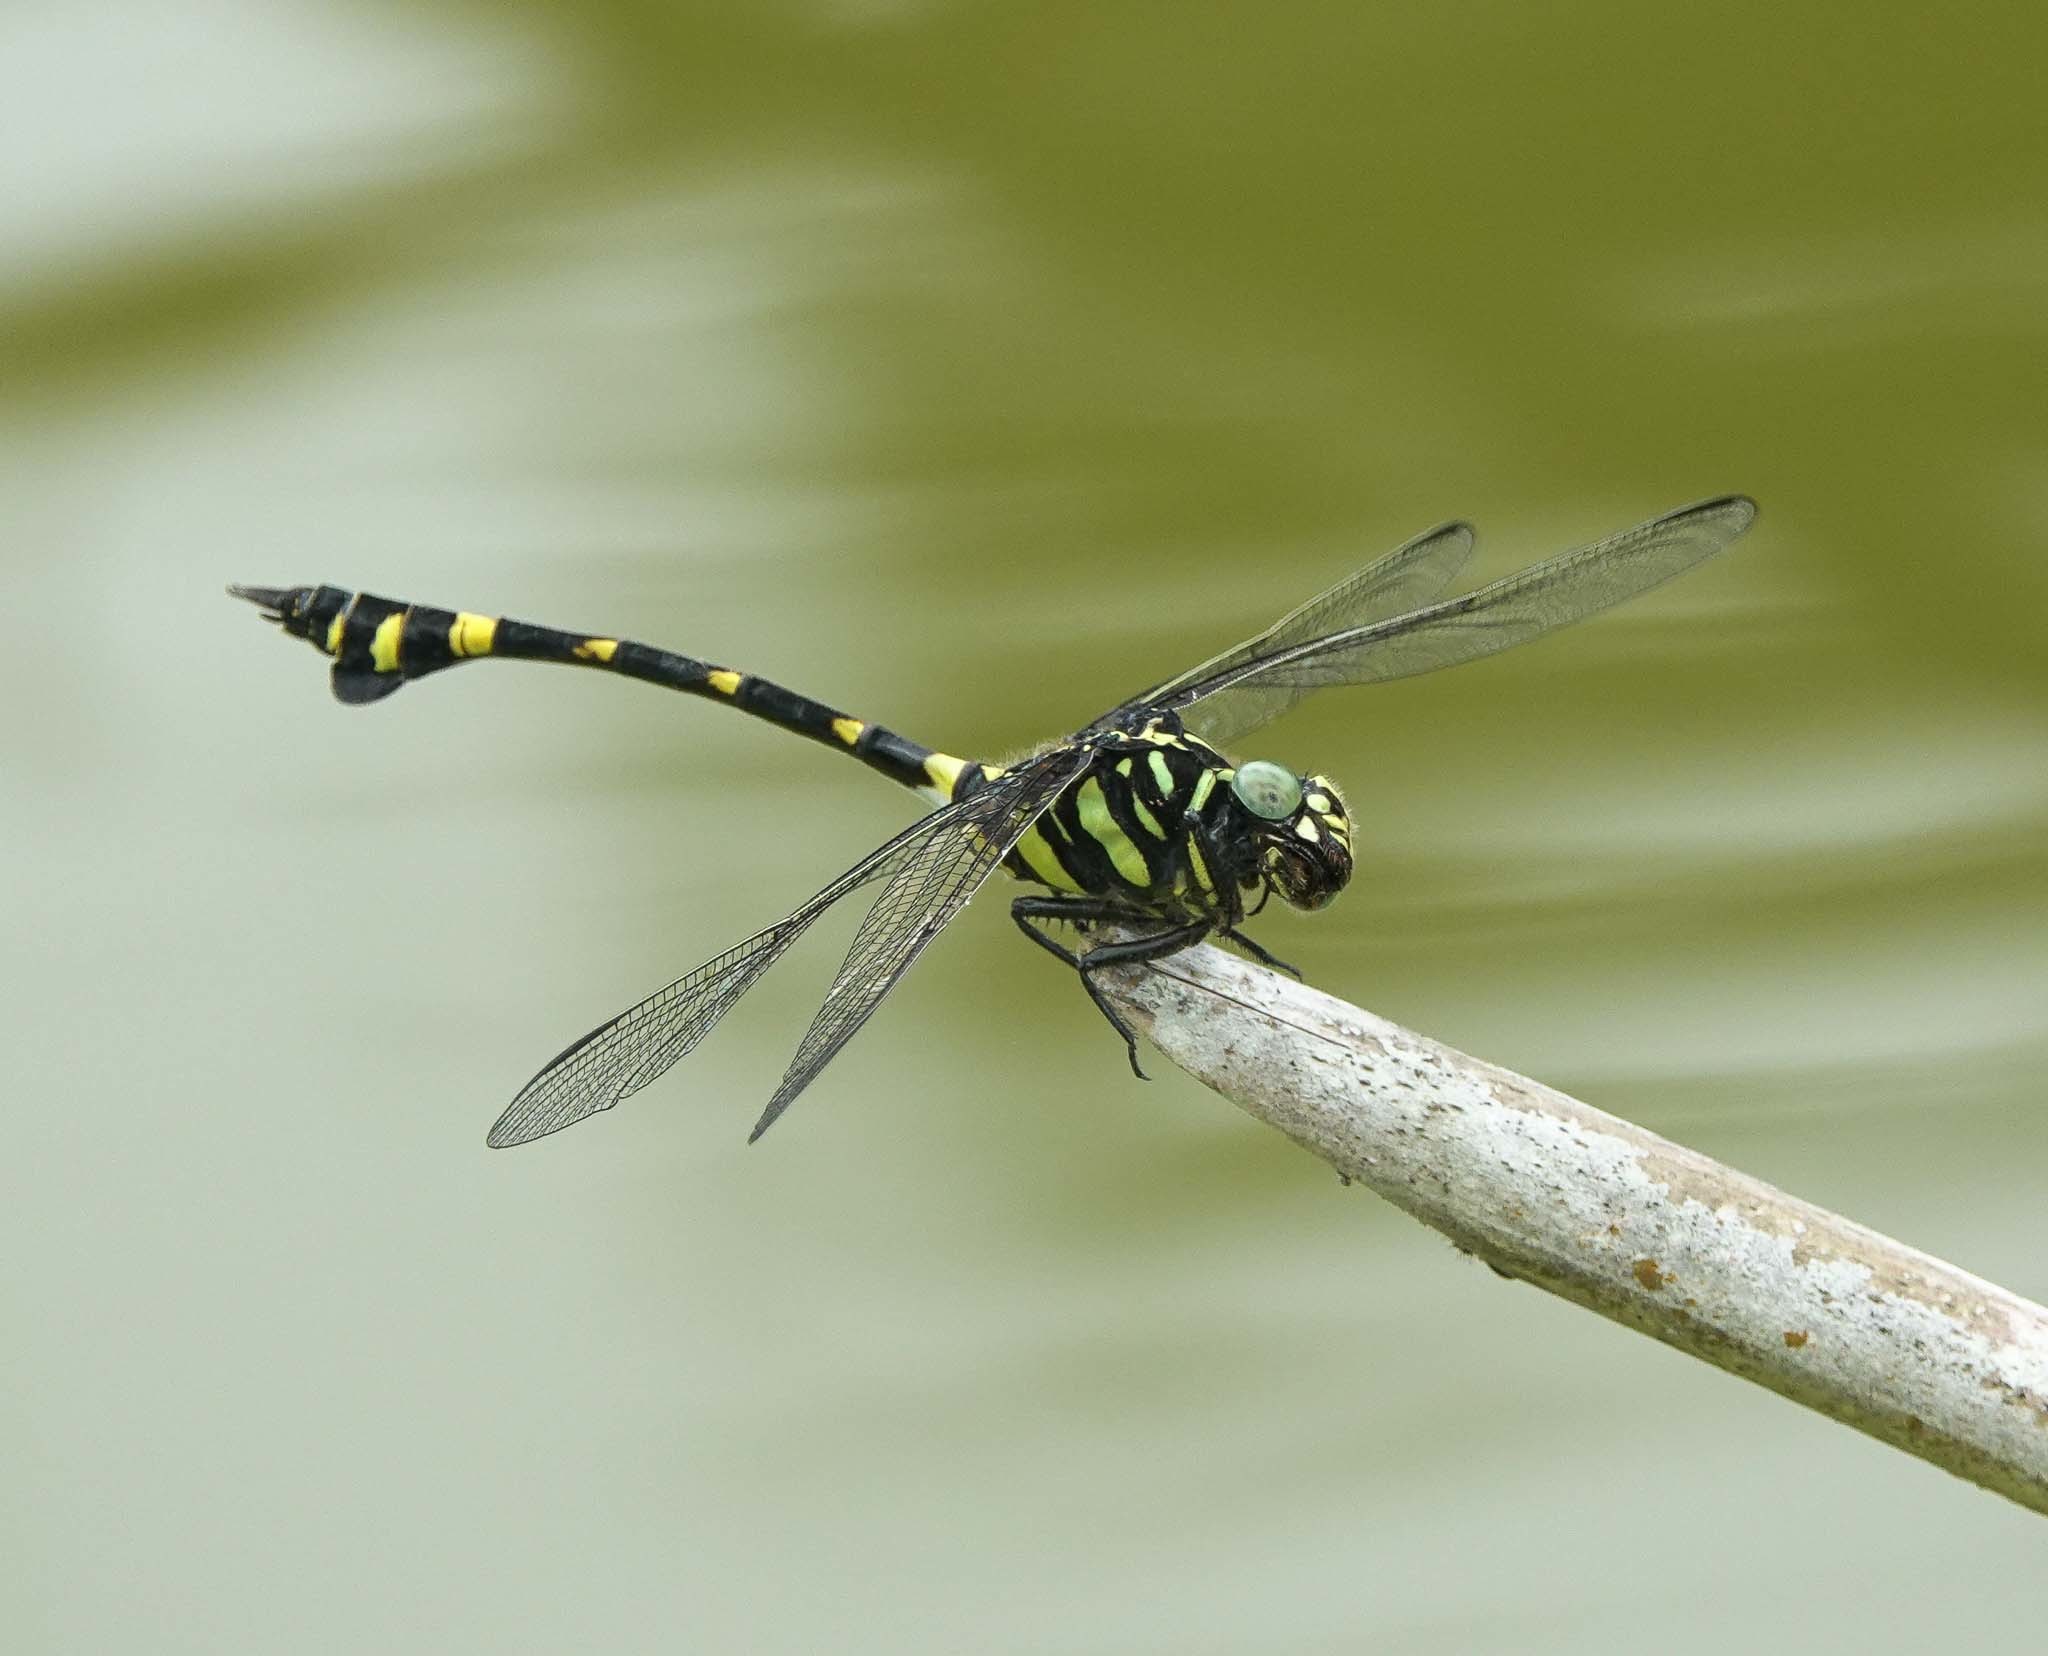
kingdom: Animalia
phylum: Arthropoda
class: Insecta
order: Odonata
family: Gomphidae
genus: Ictinogomphus
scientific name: Ictinogomphus decoratus
